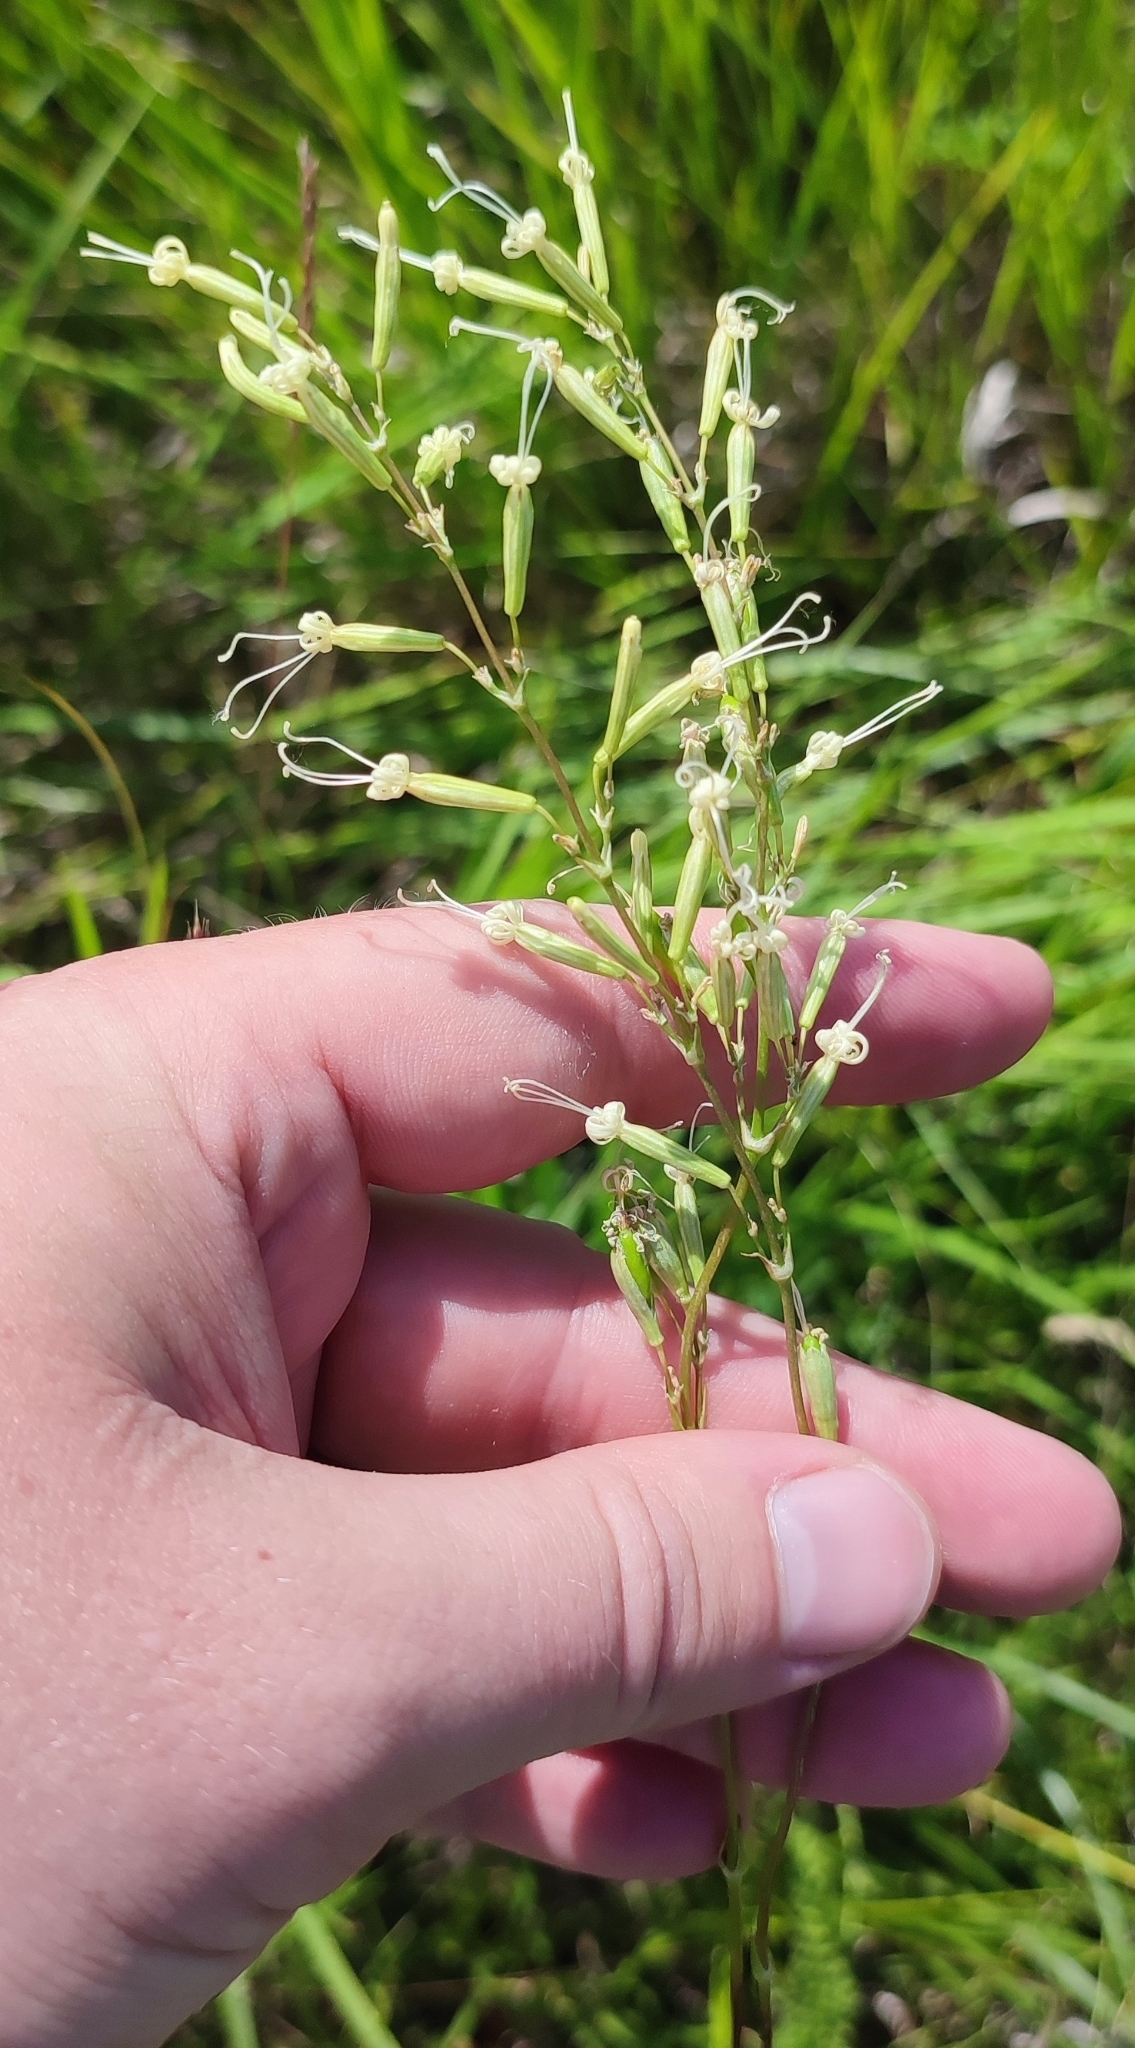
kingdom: Plantae
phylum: Tracheophyta
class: Magnoliopsida
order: Caryophyllales
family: Caryophyllaceae
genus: Silene
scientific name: Silene chlorantha
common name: Yellowgreen catchfly
